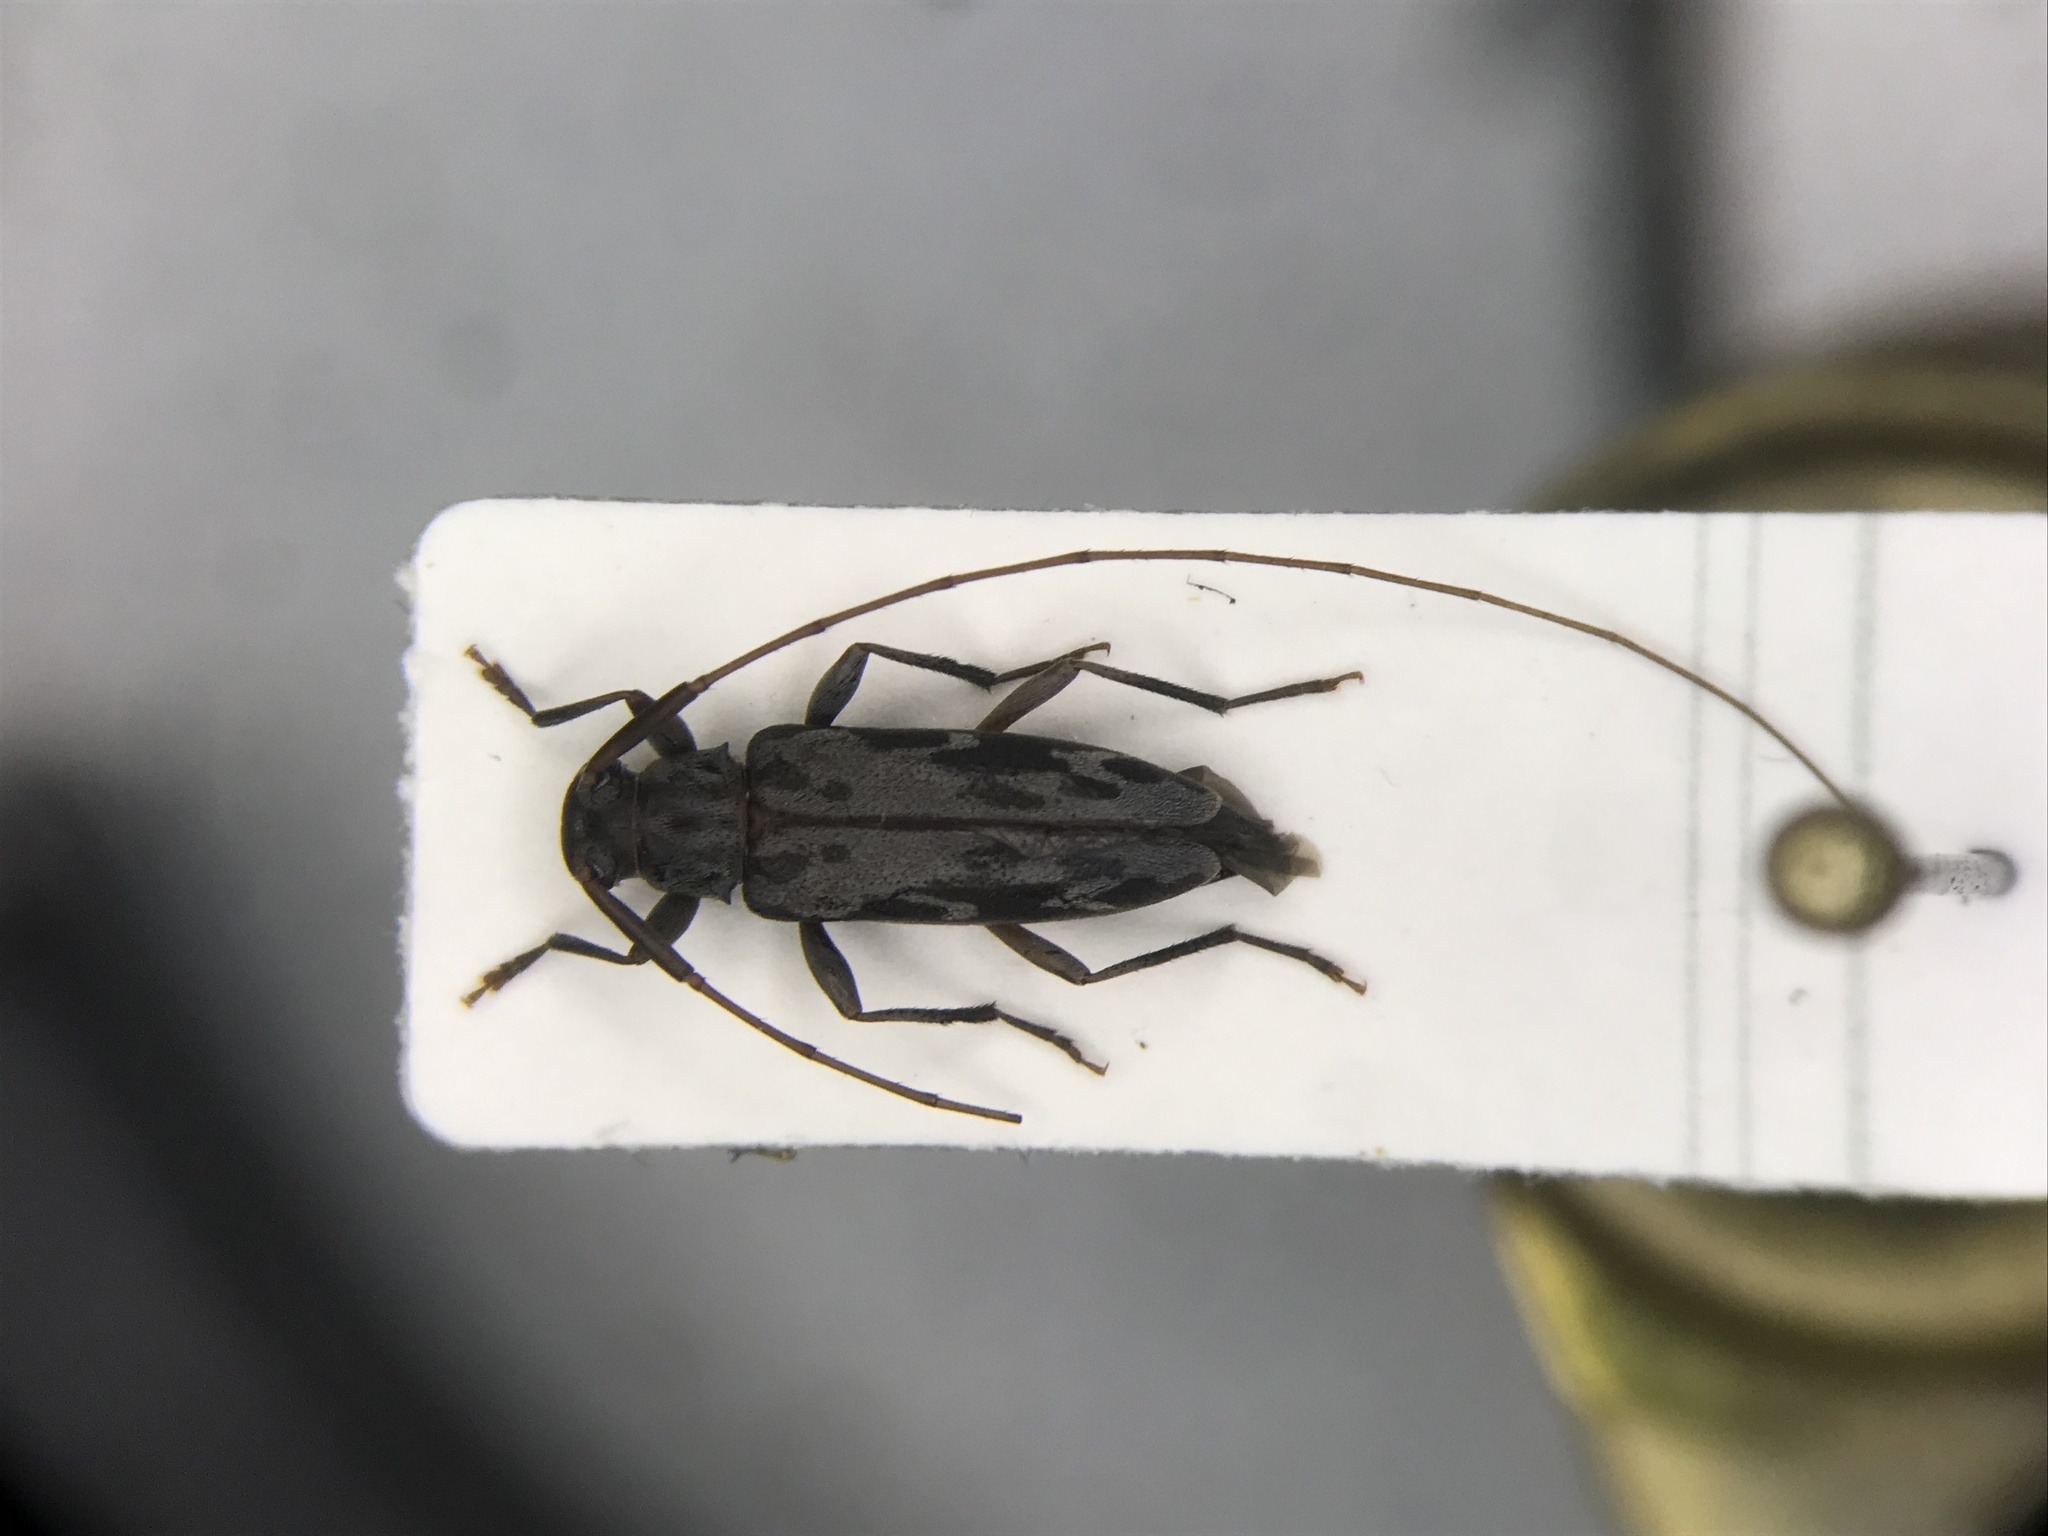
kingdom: Animalia
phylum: Arthropoda
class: Insecta
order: Coleoptera
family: Cerambycidae
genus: Lepturges
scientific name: Lepturges symmetricus
